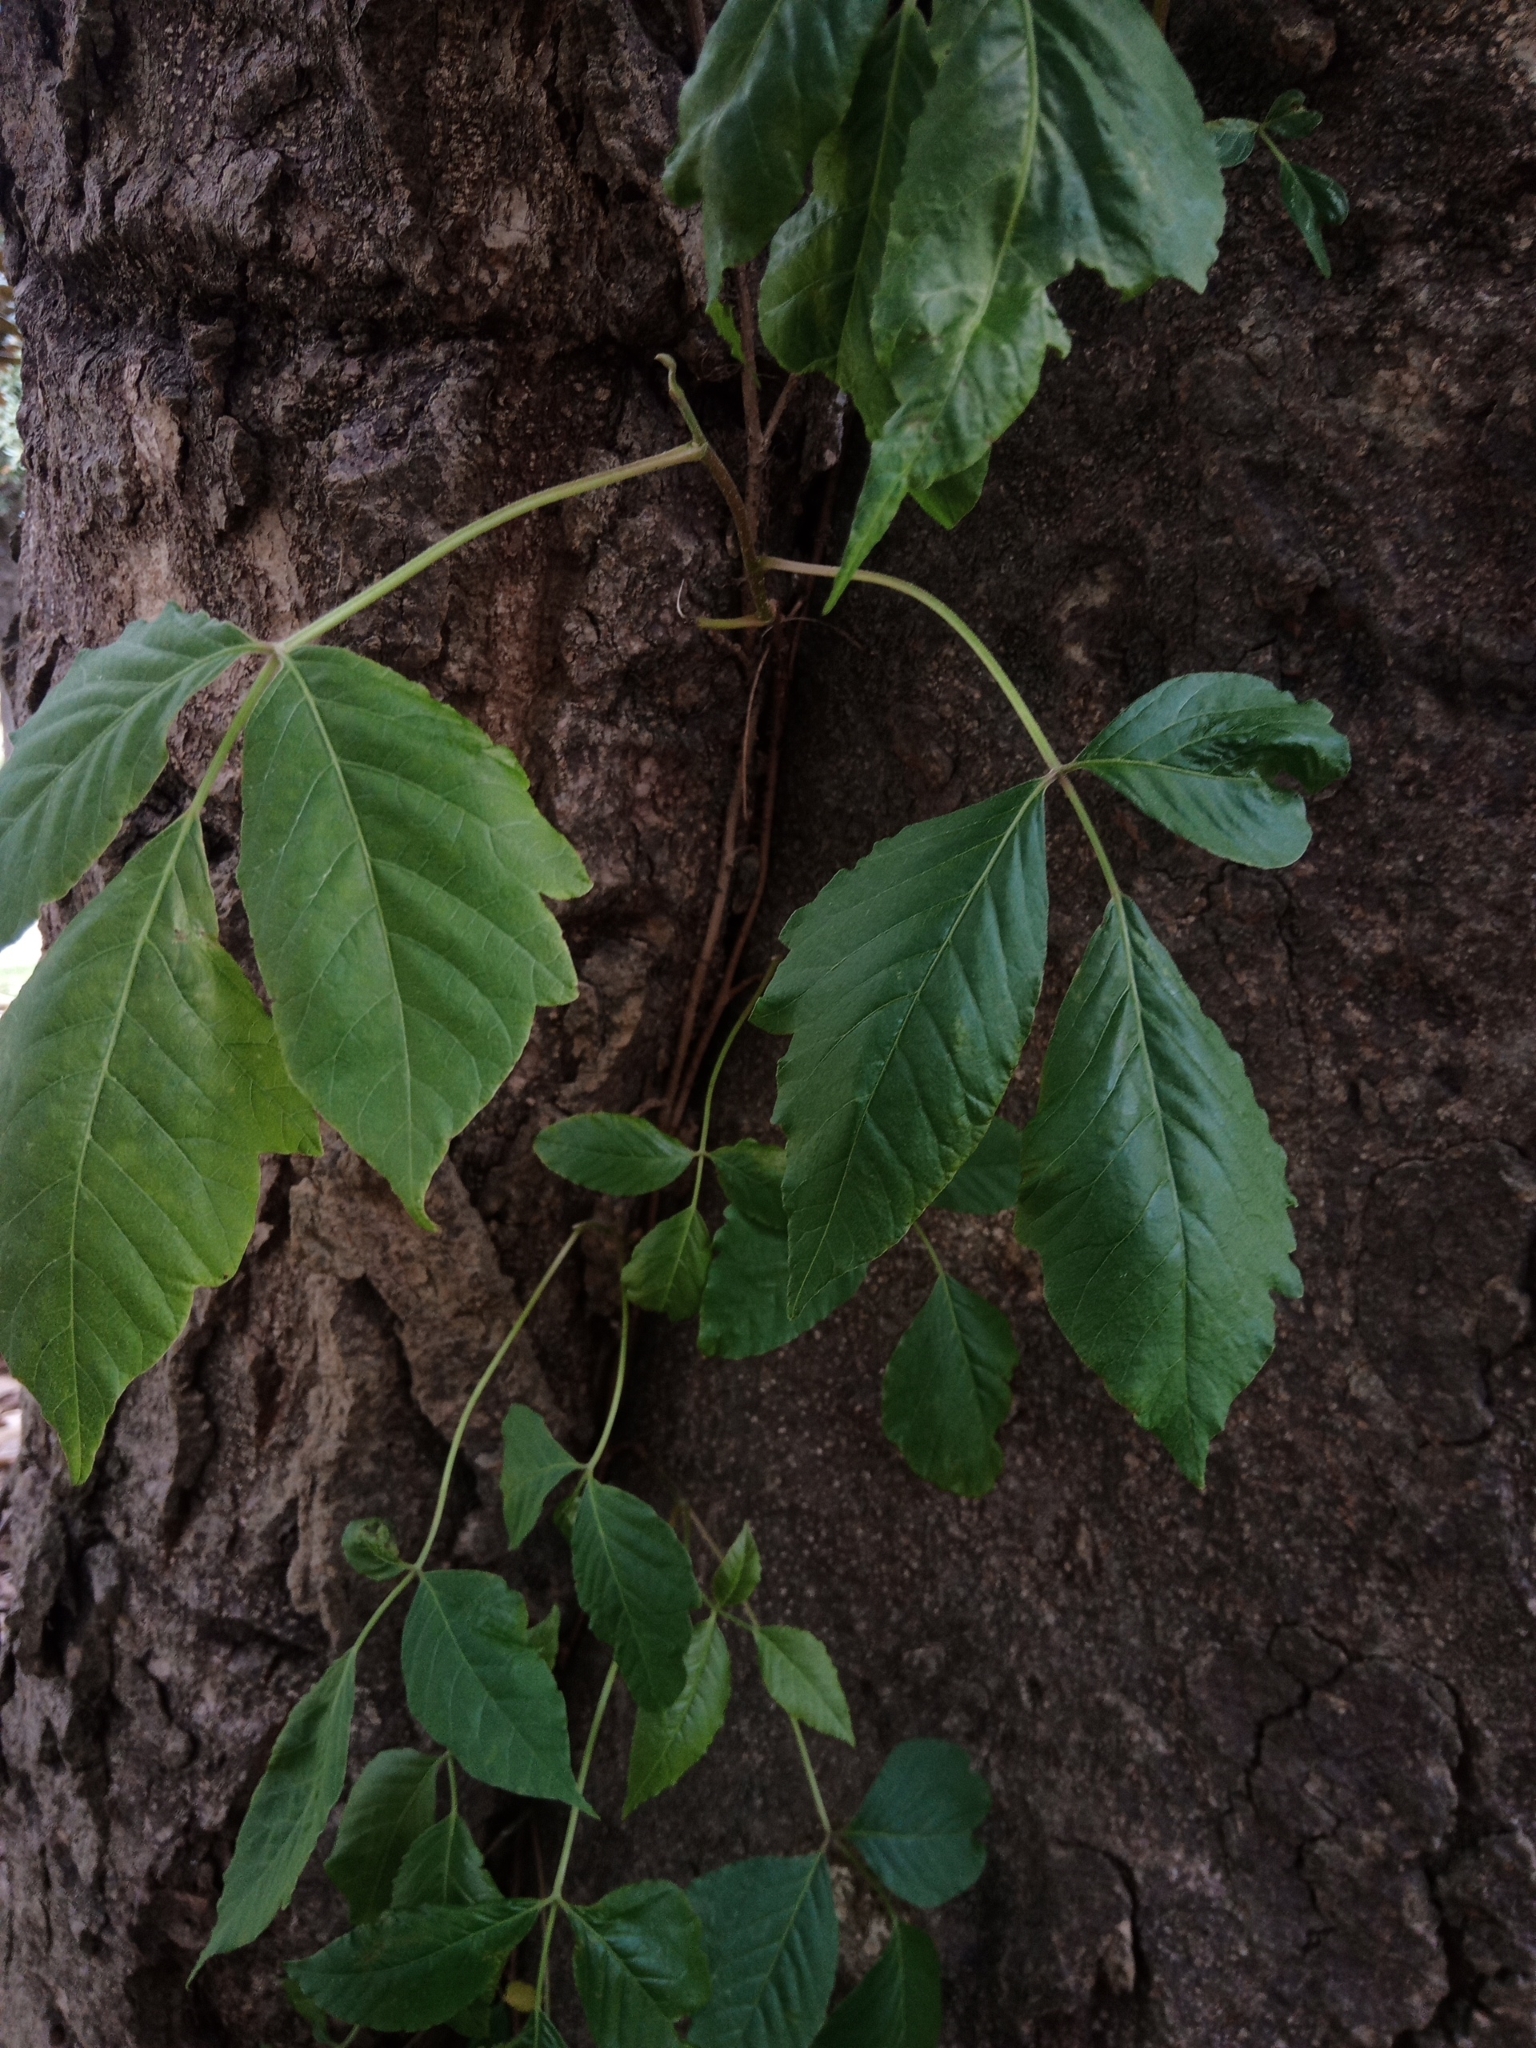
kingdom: Plantae
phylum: Tracheophyta
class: Magnoliopsida
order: Sapindales
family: Anacardiaceae
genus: Toxicodendron
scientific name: Toxicodendron radicans
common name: Poison ivy
